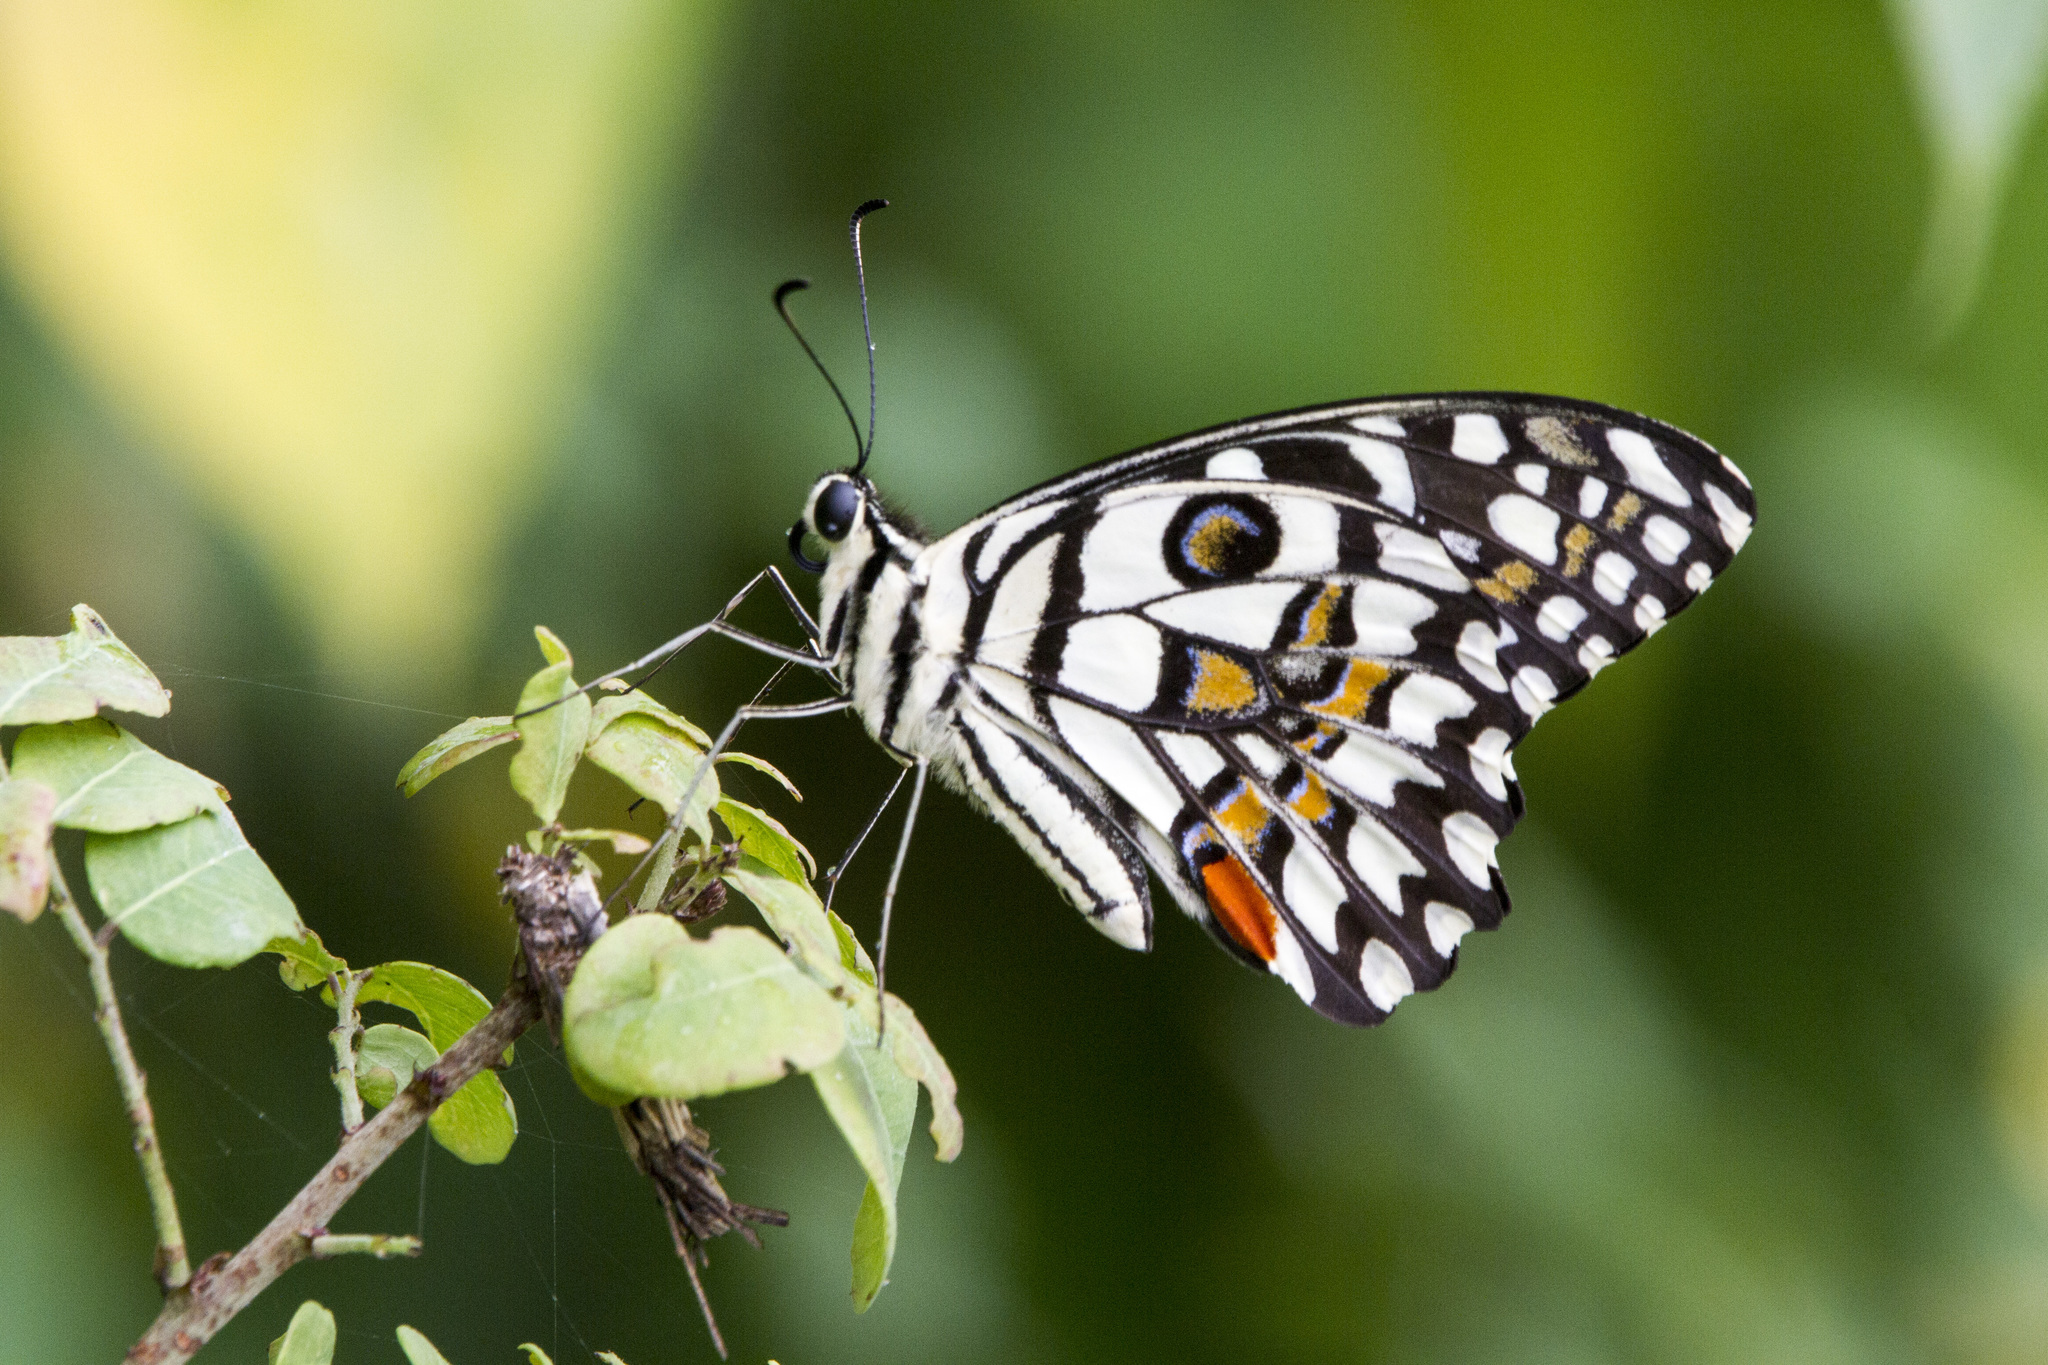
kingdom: Animalia
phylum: Arthropoda
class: Insecta
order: Lepidoptera
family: Papilionidae
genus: Papilio
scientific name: Papilio demoleus
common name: Lime butterfly
